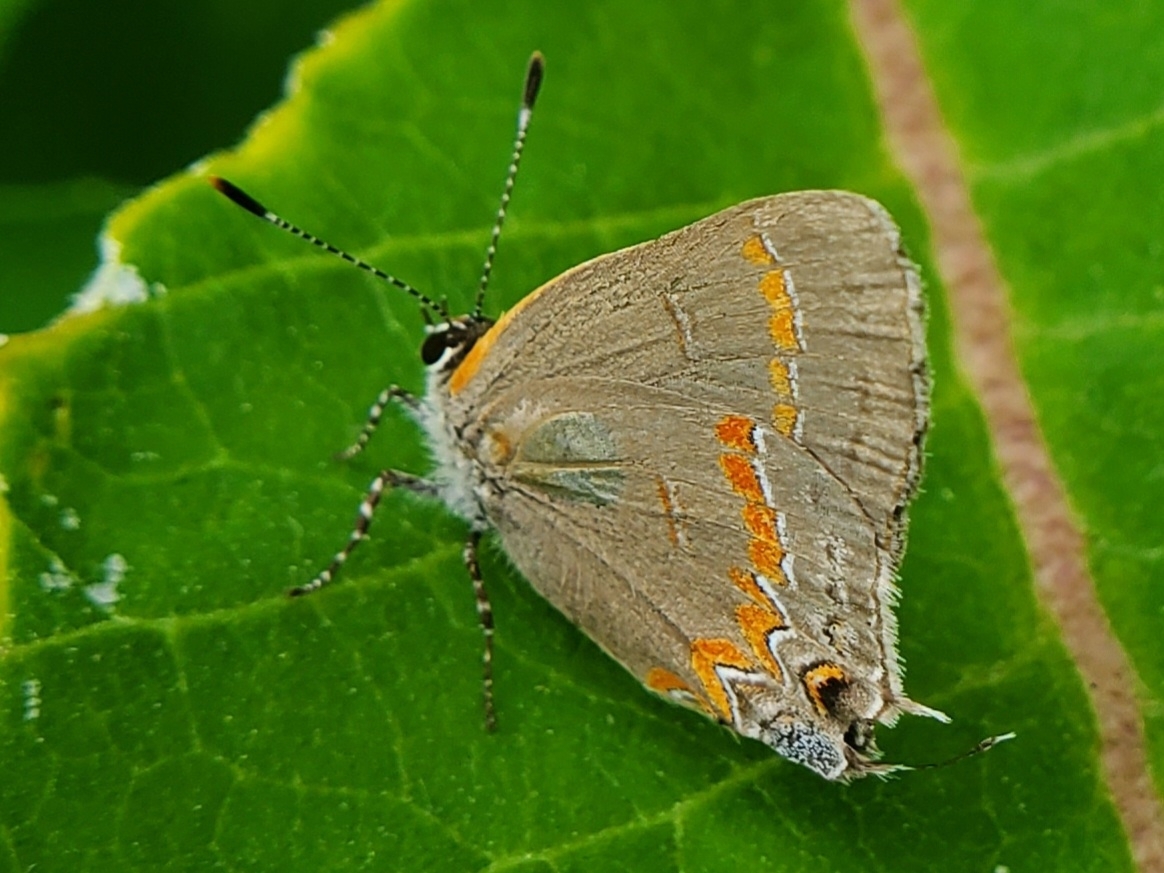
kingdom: Animalia
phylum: Arthropoda
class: Insecta
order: Lepidoptera
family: Lycaenidae
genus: Calycopis
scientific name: Calycopis cecrops
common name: Red-banded hairstreak
